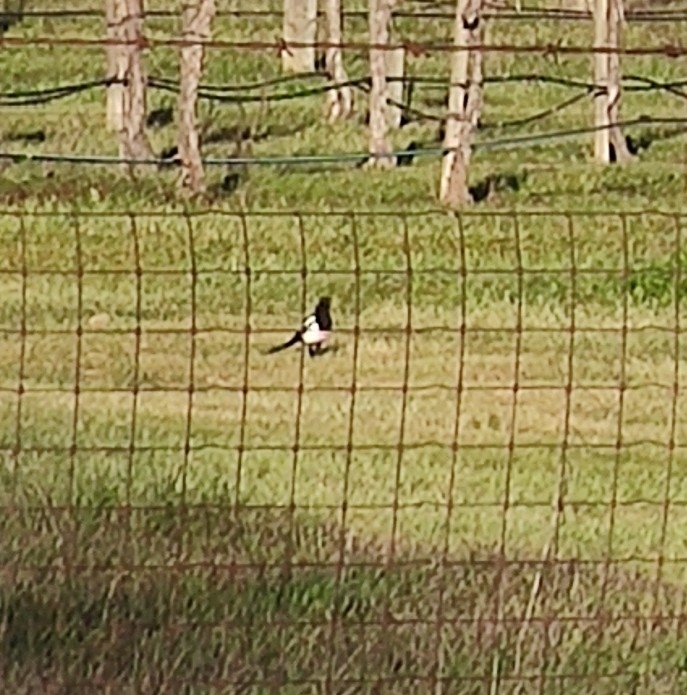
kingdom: Animalia
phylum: Chordata
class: Aves
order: Passeriformes
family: Corvidae
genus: Pica
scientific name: Pica nuttalli
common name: Yellow-billed magpie
